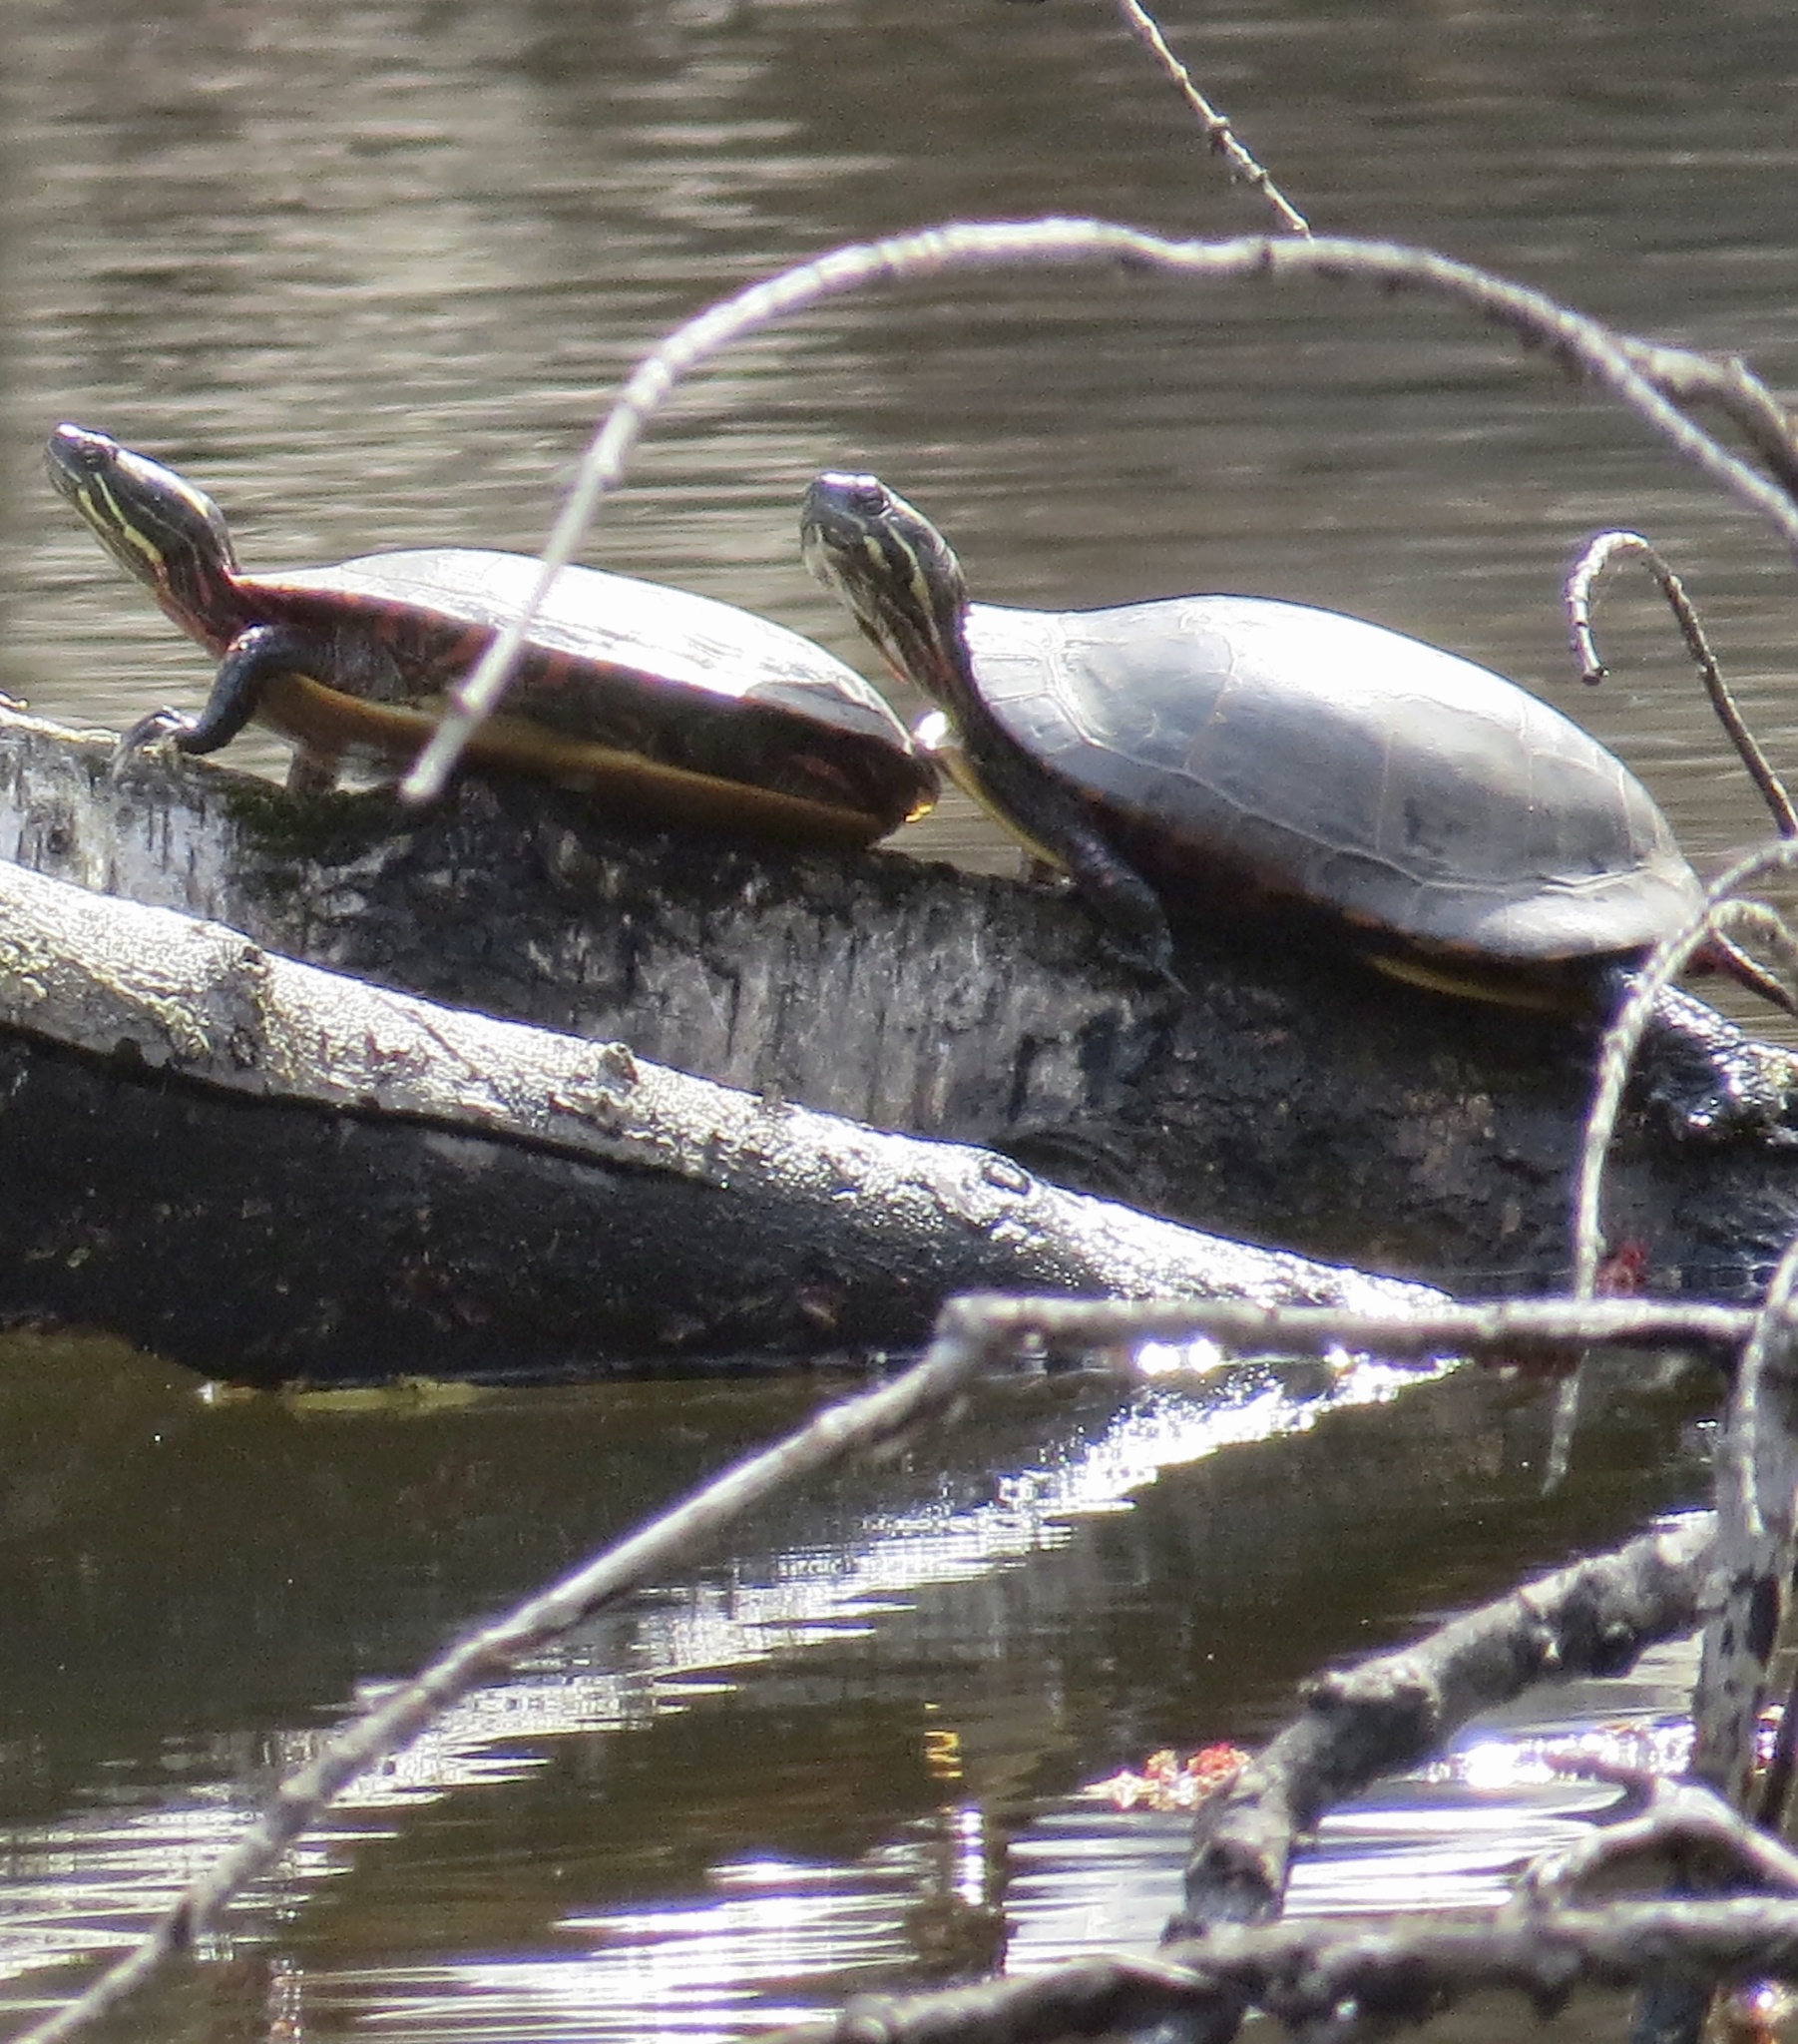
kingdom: Animalia
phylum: Chordata
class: Testudines
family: Emydidae
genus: Chrysemys
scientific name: Chrysemys picta
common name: Painted turtle
